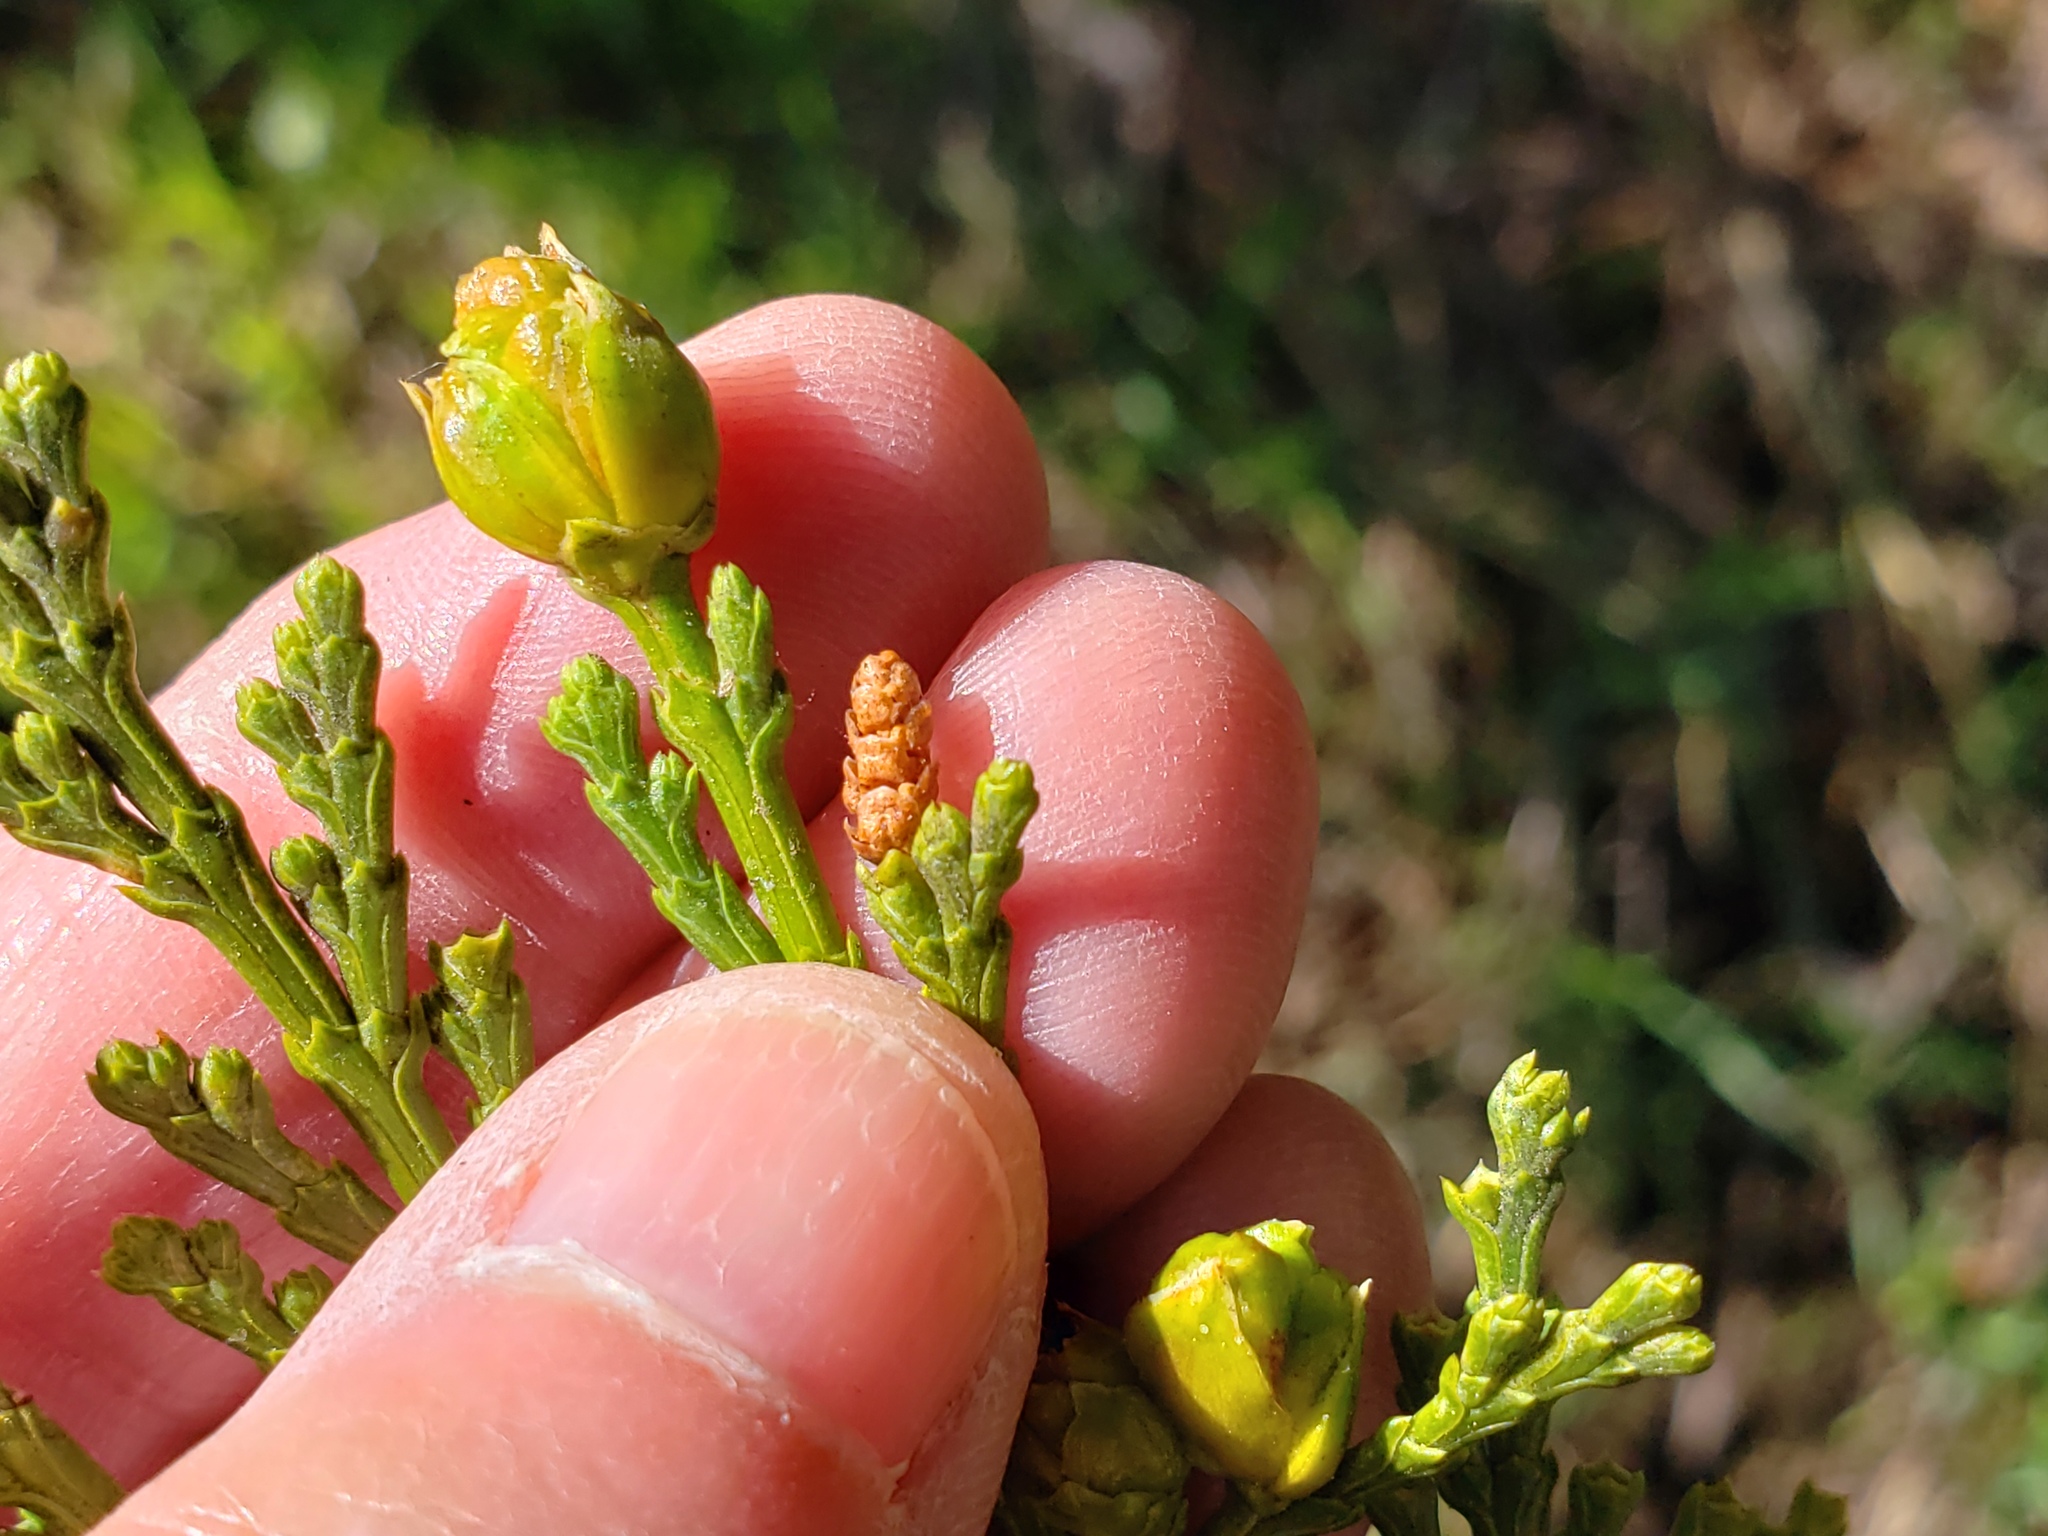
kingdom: Plantae
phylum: Tracheophyta
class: Pinopsida
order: Pinales
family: Cupressaceae
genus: Calocedrus
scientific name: Calocedrus decurrens
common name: Californian incense-cedar
